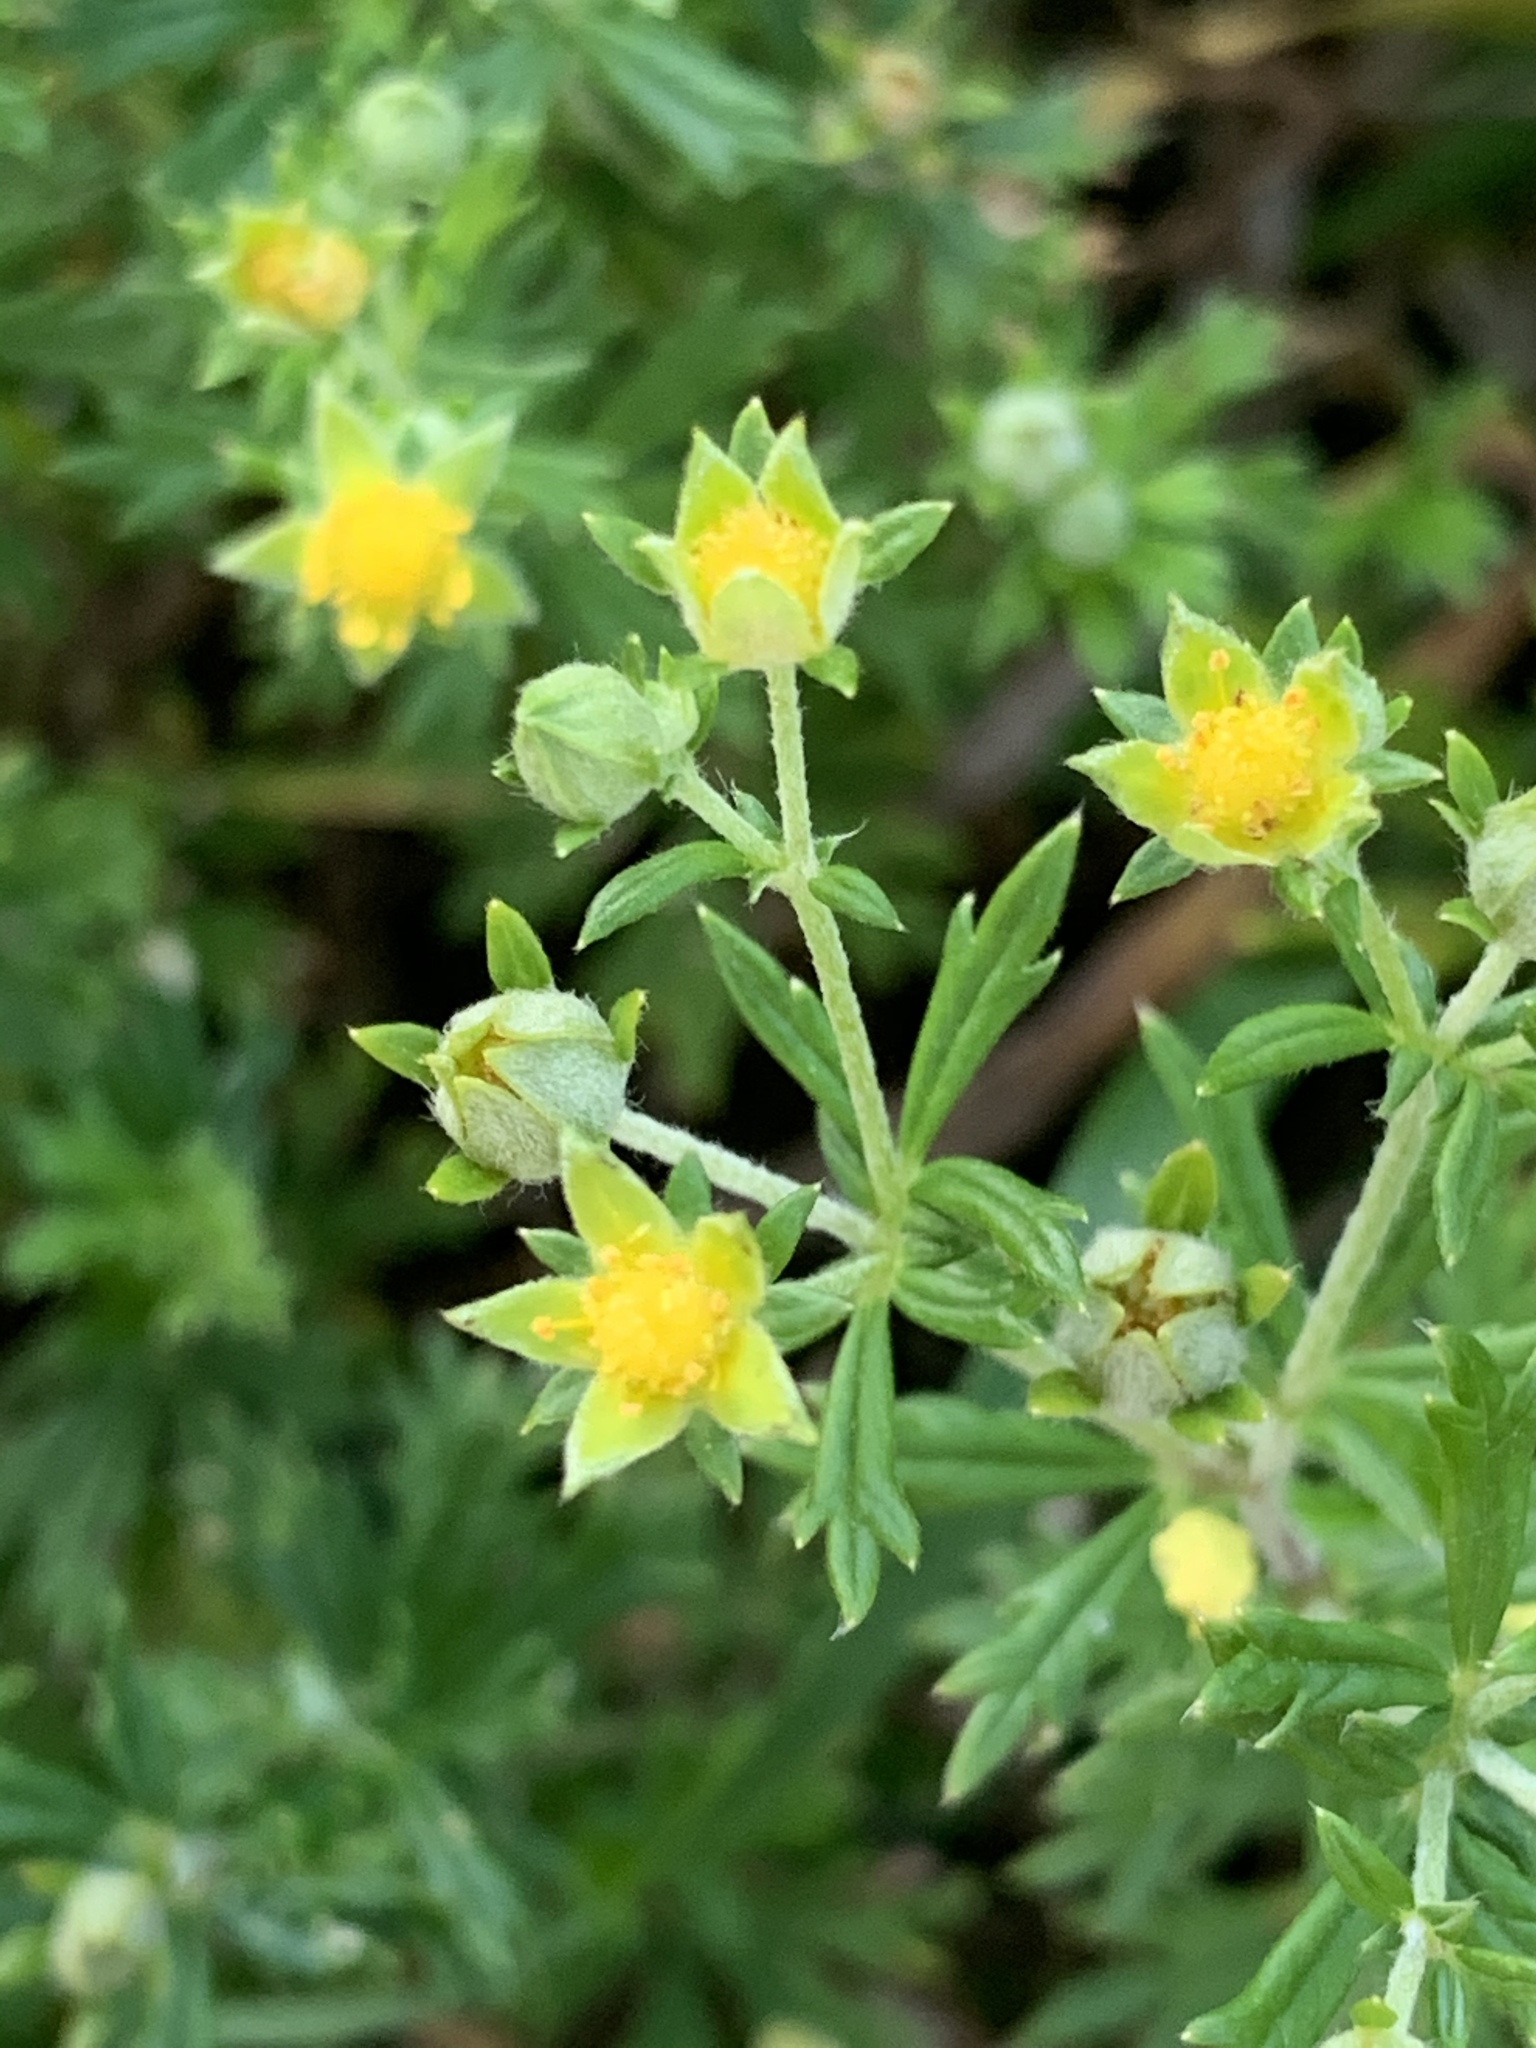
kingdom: Plantae
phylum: Tracheophyta
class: Magnoliopsida
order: Rosales
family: Rosaceae
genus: Potentilla
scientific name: Potentilla argentea
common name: Hoary cinquefoil
